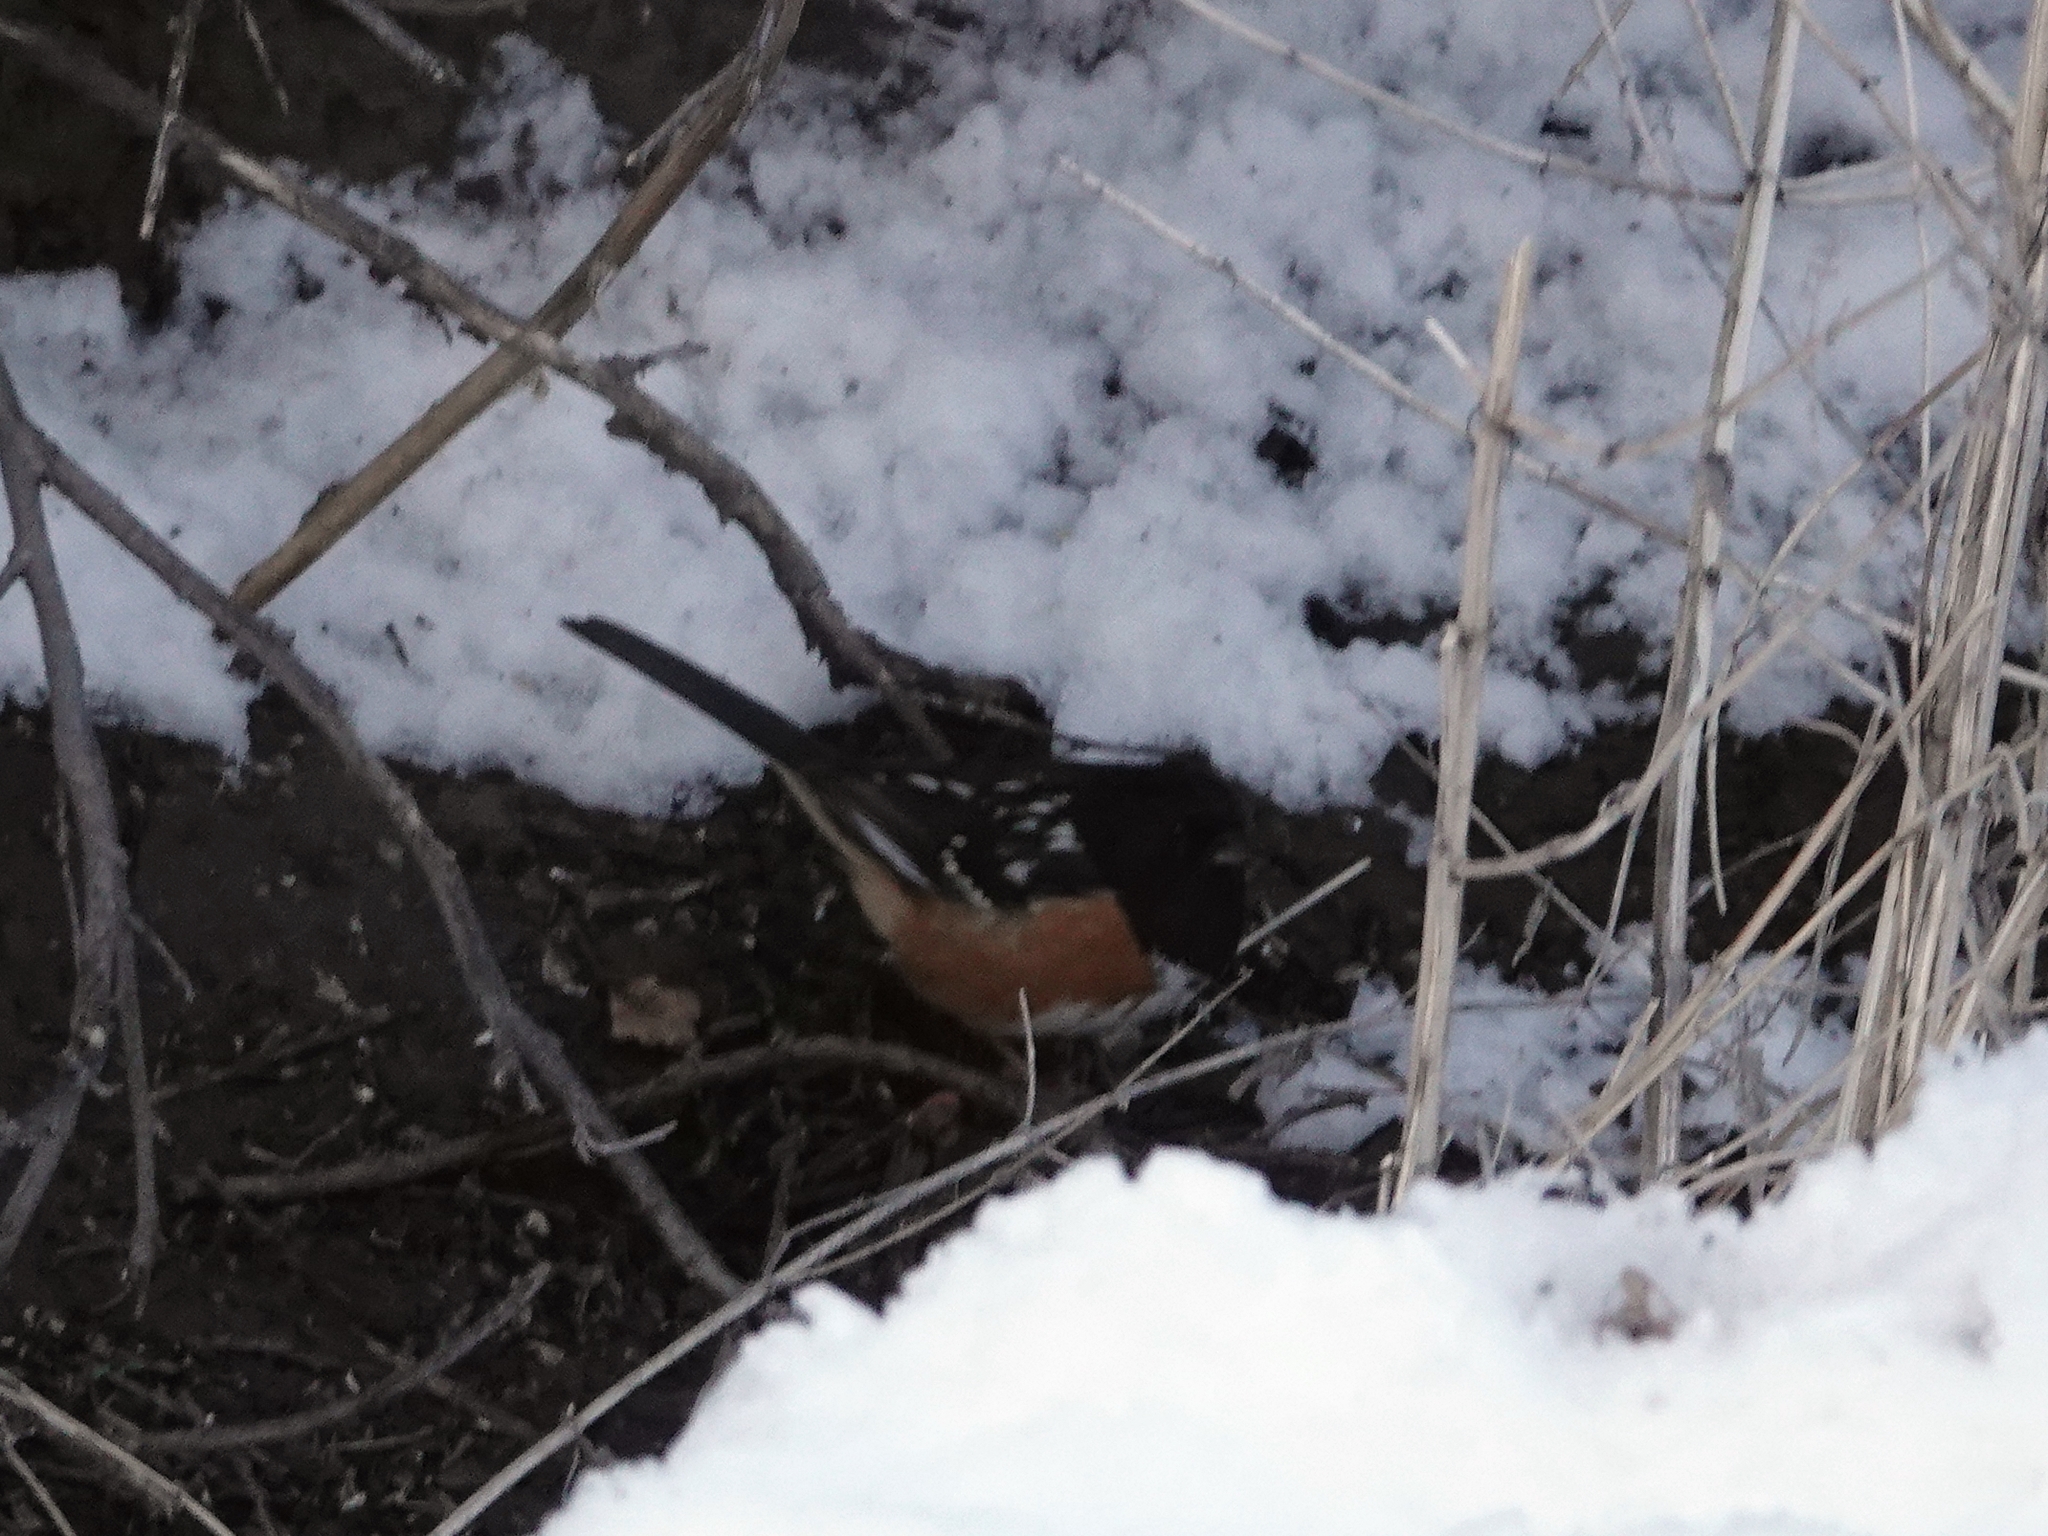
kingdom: Animalia
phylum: Chordata
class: Aves
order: Passeriformes
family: Passerellidae
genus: Pipilo
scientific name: Pipilo maculatus
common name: Spotted towhee
